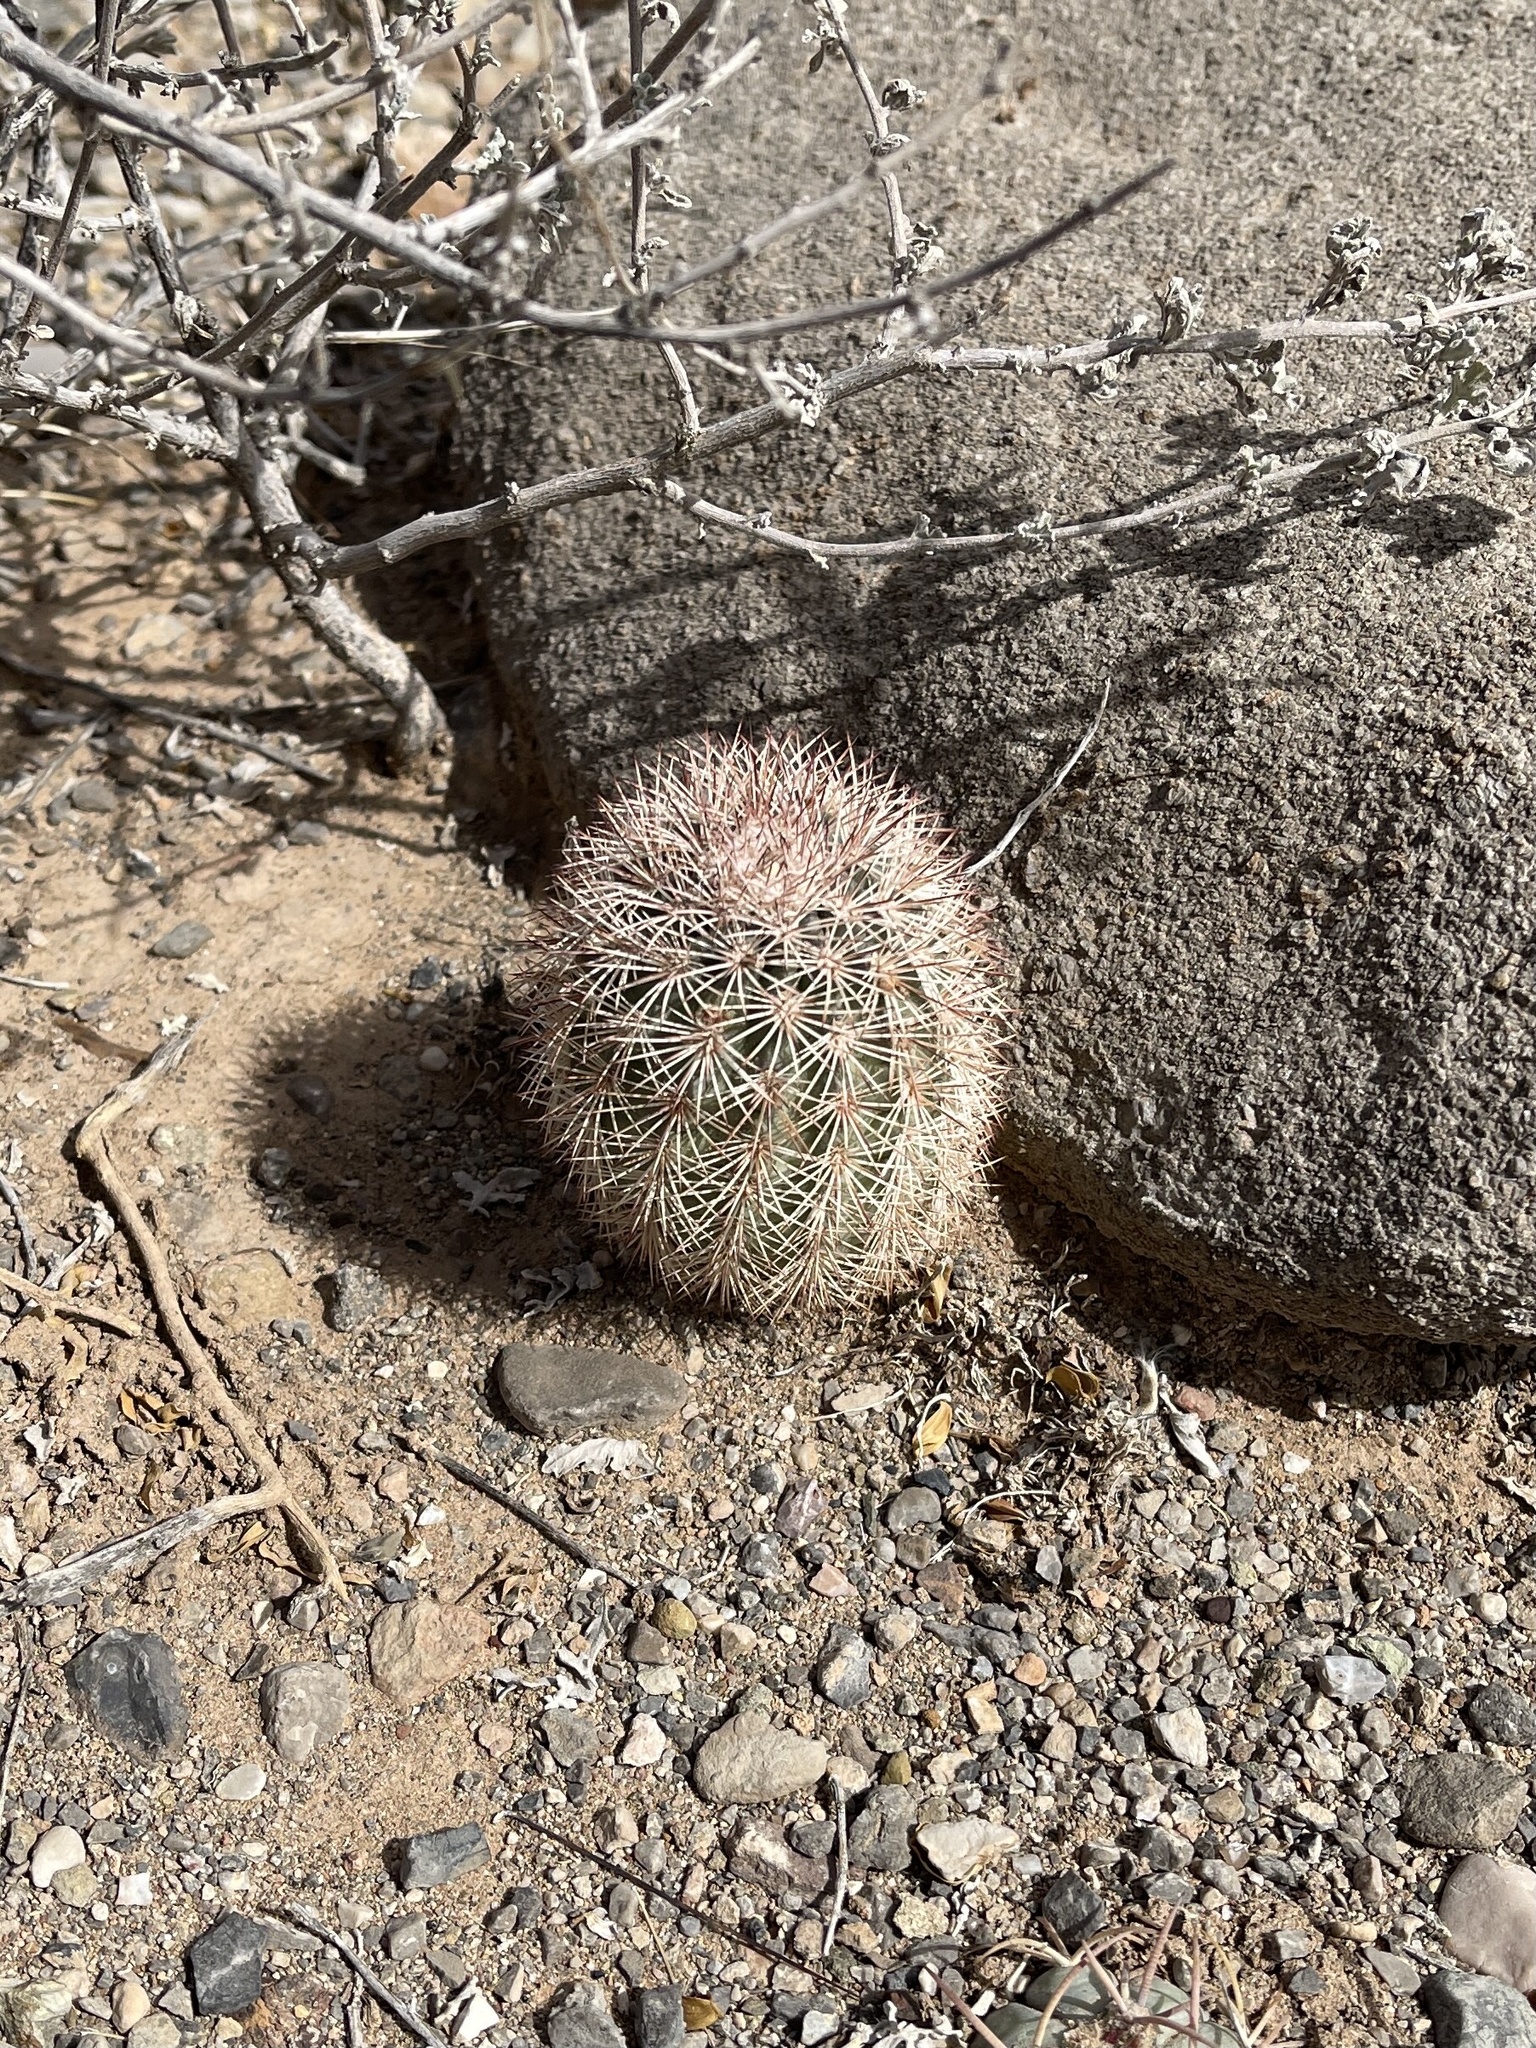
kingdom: Plantae
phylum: Tracheophyta
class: Magnoliopsida
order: Caryophyllales
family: Cactaceae
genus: Echinocereus
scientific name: Echinocereus dasyacanthus
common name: Spiny hedgehog cactus
